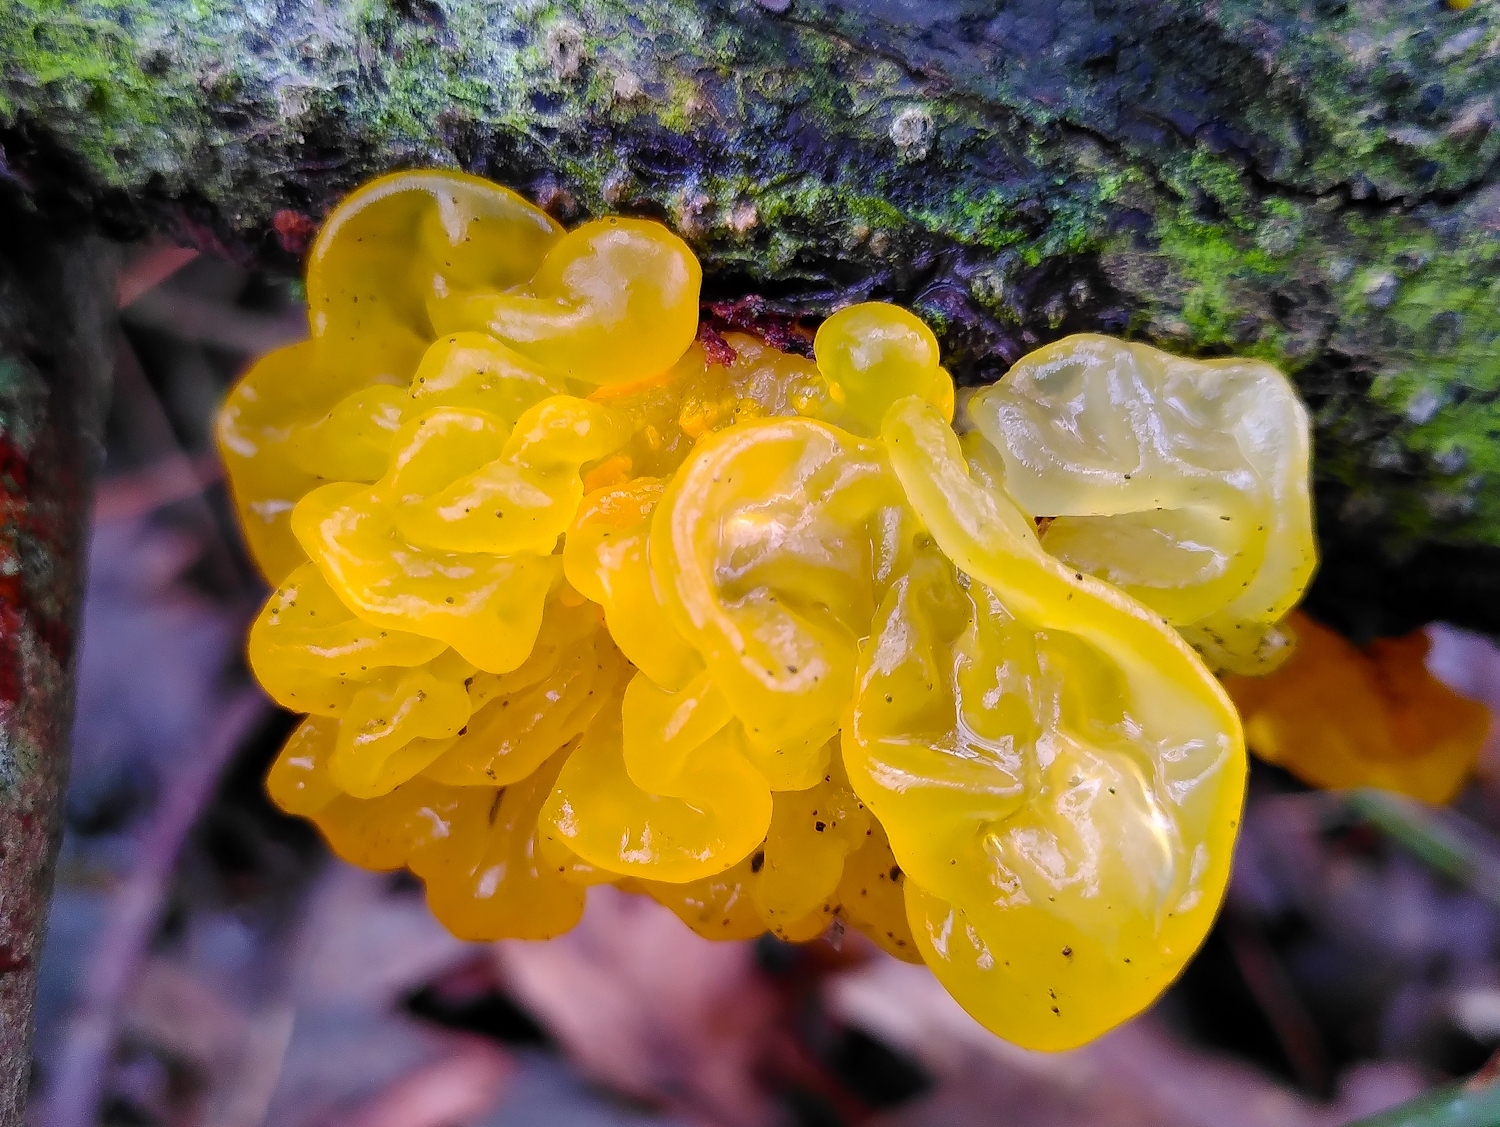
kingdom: Fungi
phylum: Basidiomycota
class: Tremellomycetes
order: Tremellales
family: Tremellaceae
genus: Tremella
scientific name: Tremella mesenterica
